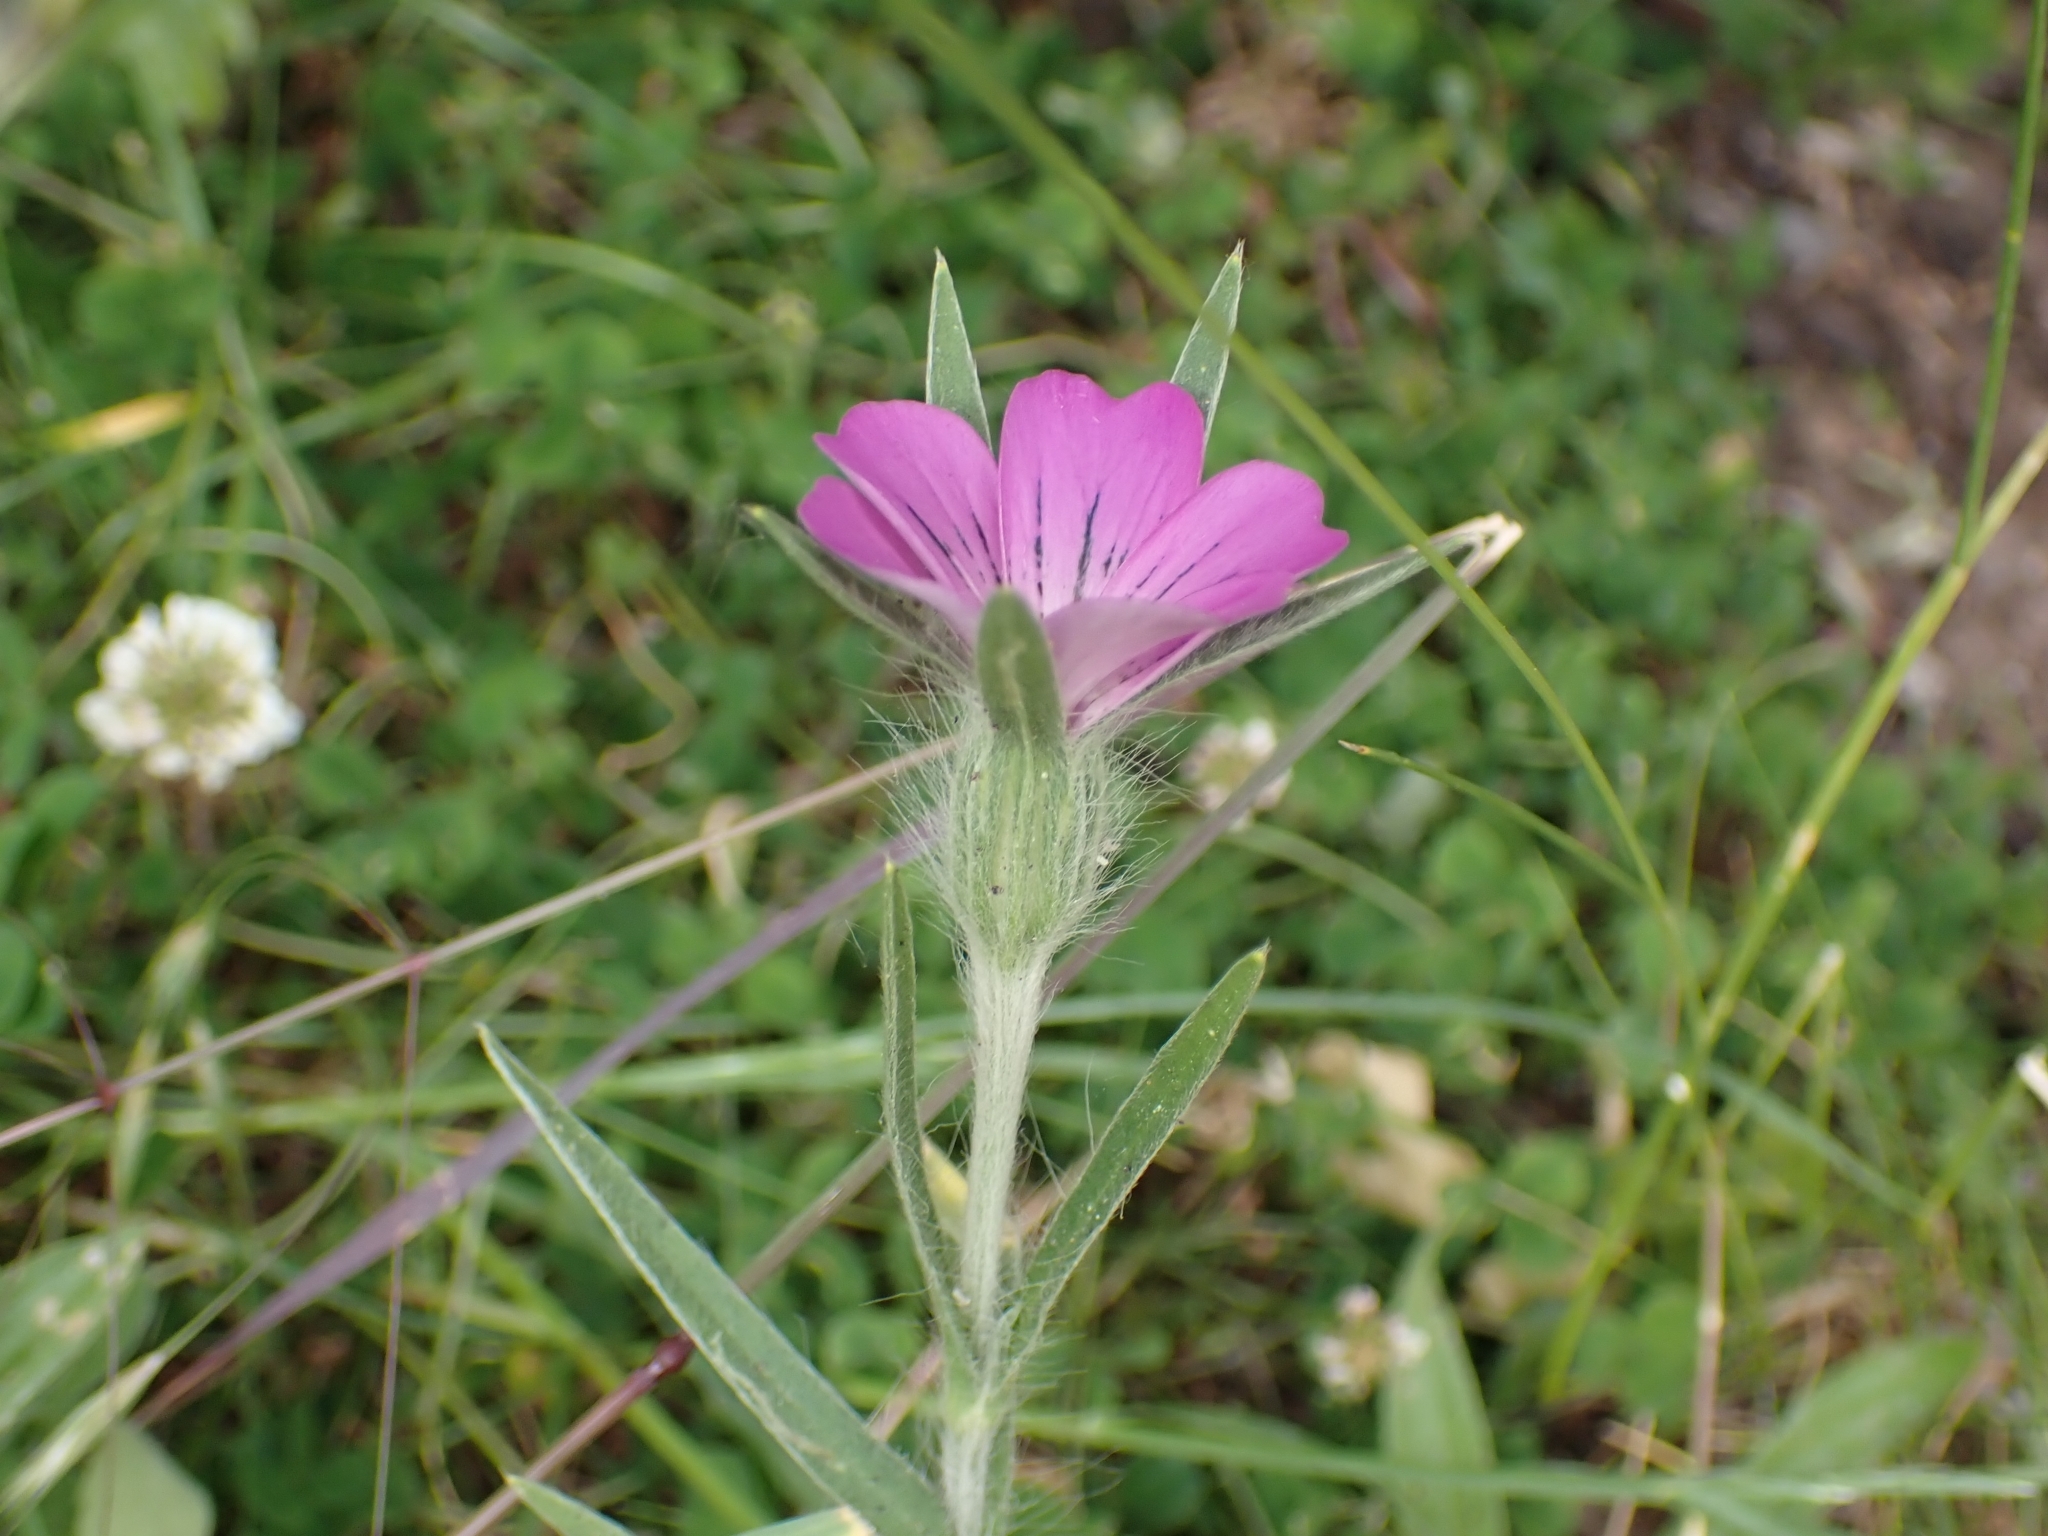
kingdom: Plantae
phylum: Tracheophyta
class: Magnoliopsida
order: Caryophyllales
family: Caryophyllaceae
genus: Agrostemma
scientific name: Agrostemma githago
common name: Common corncockle
